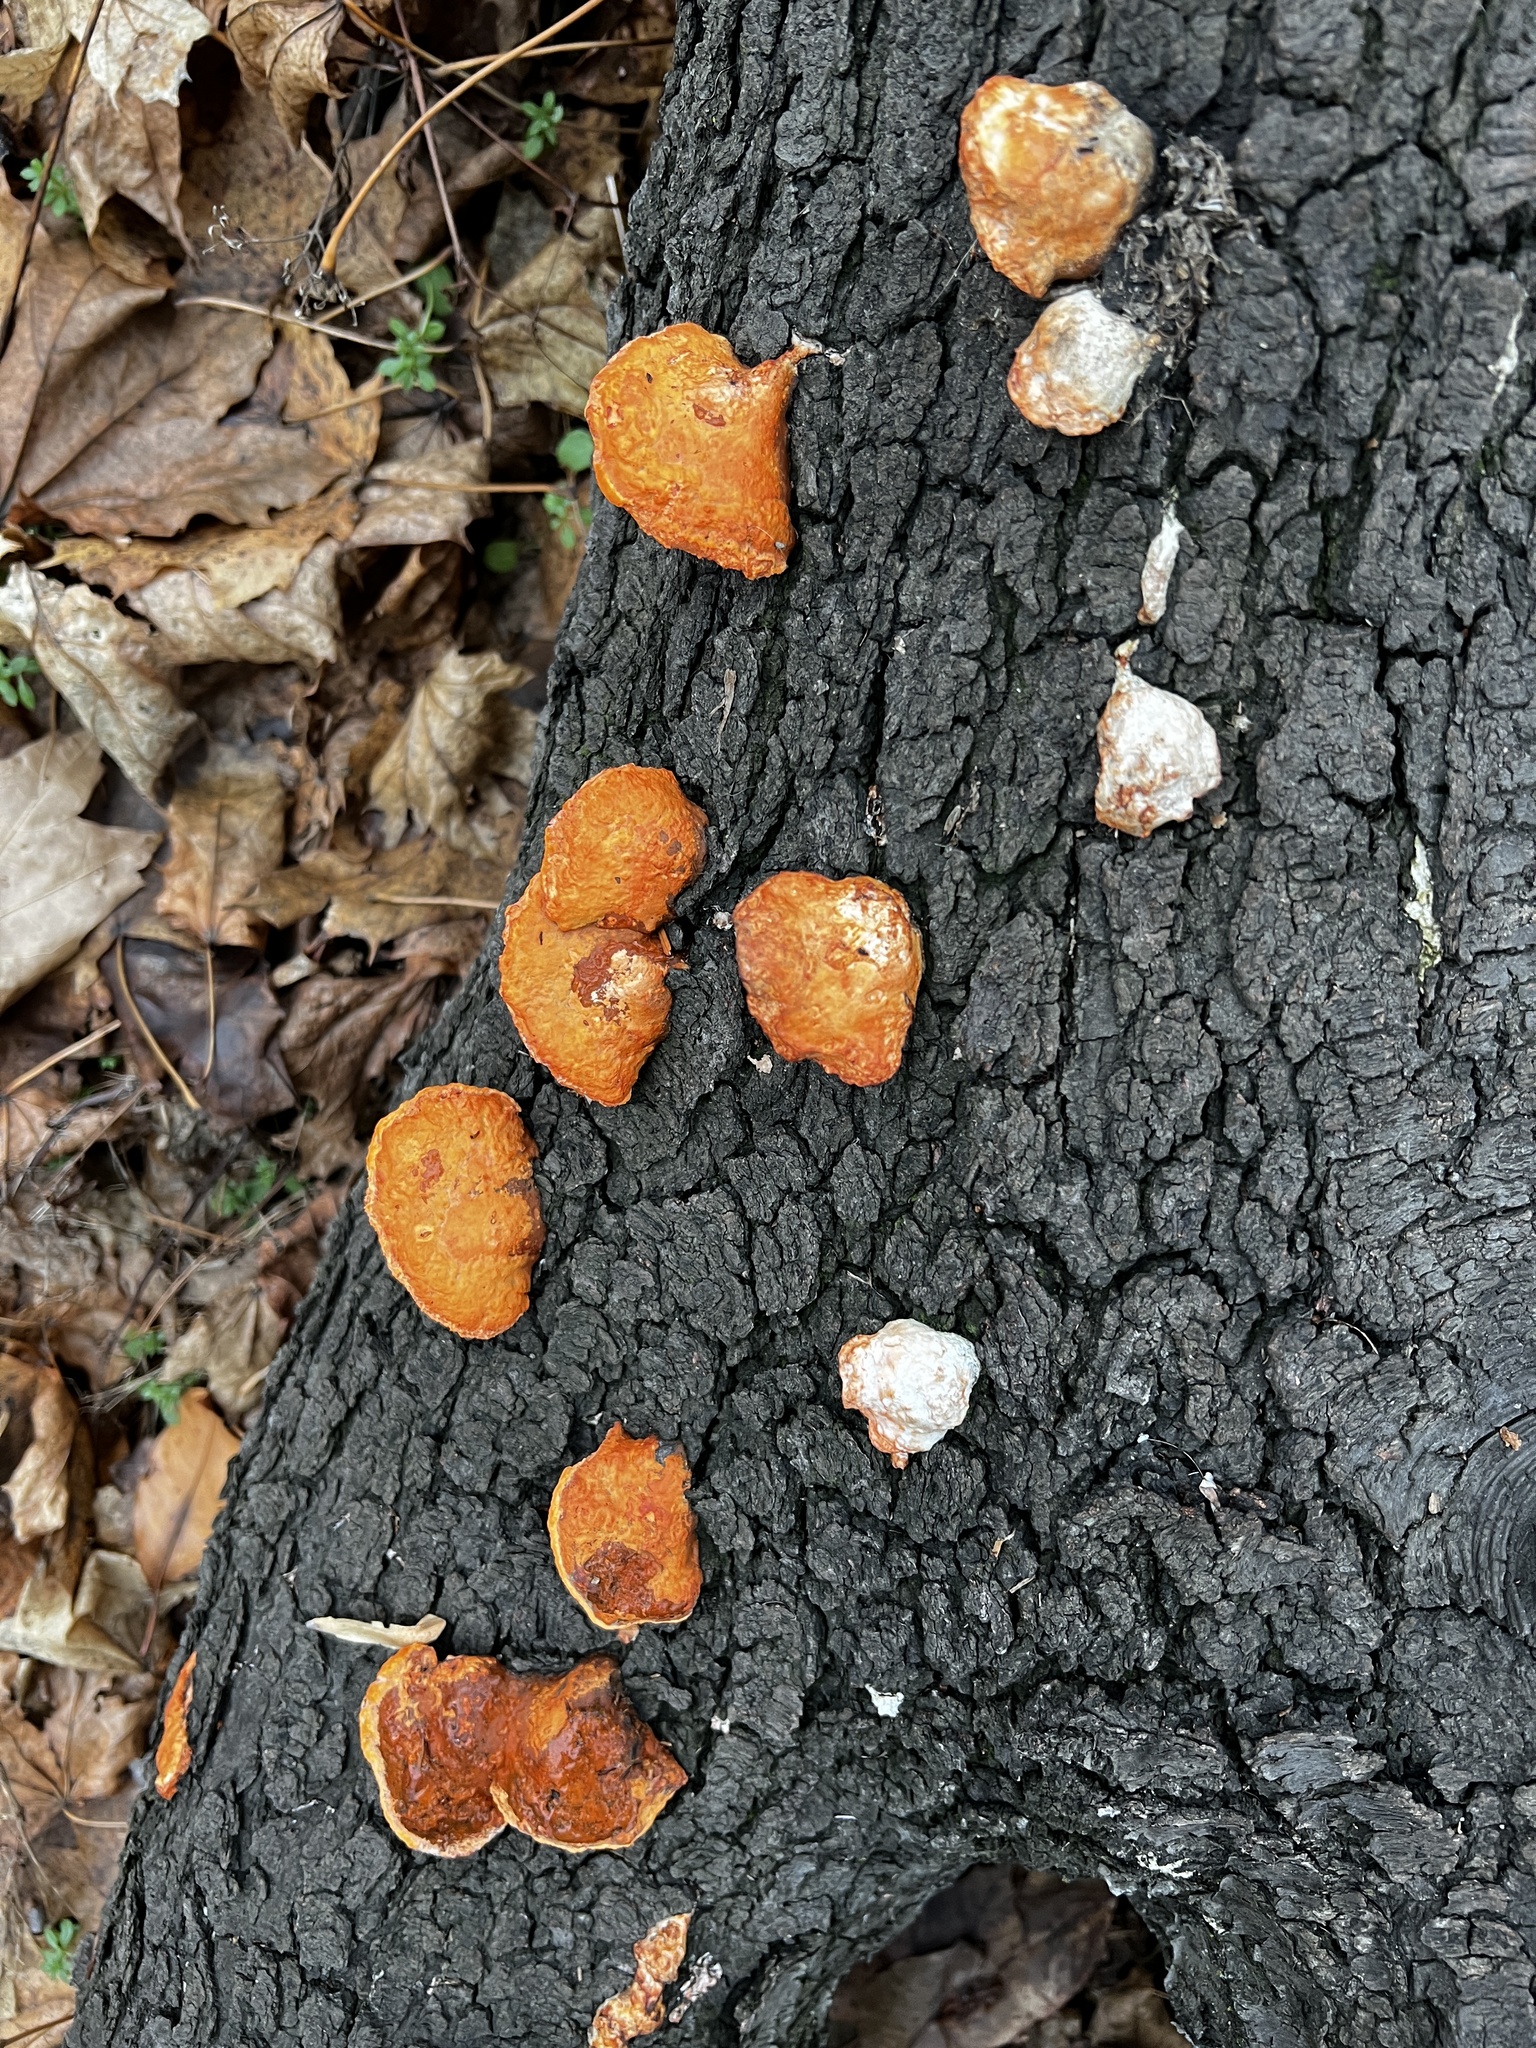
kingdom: Fungi
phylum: Basidiomycota
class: Agaricomycetes
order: Polyporales
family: Polyporaceae
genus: Trametes
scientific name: Trametes cinnabarina
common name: Northern cinnabar polypore
